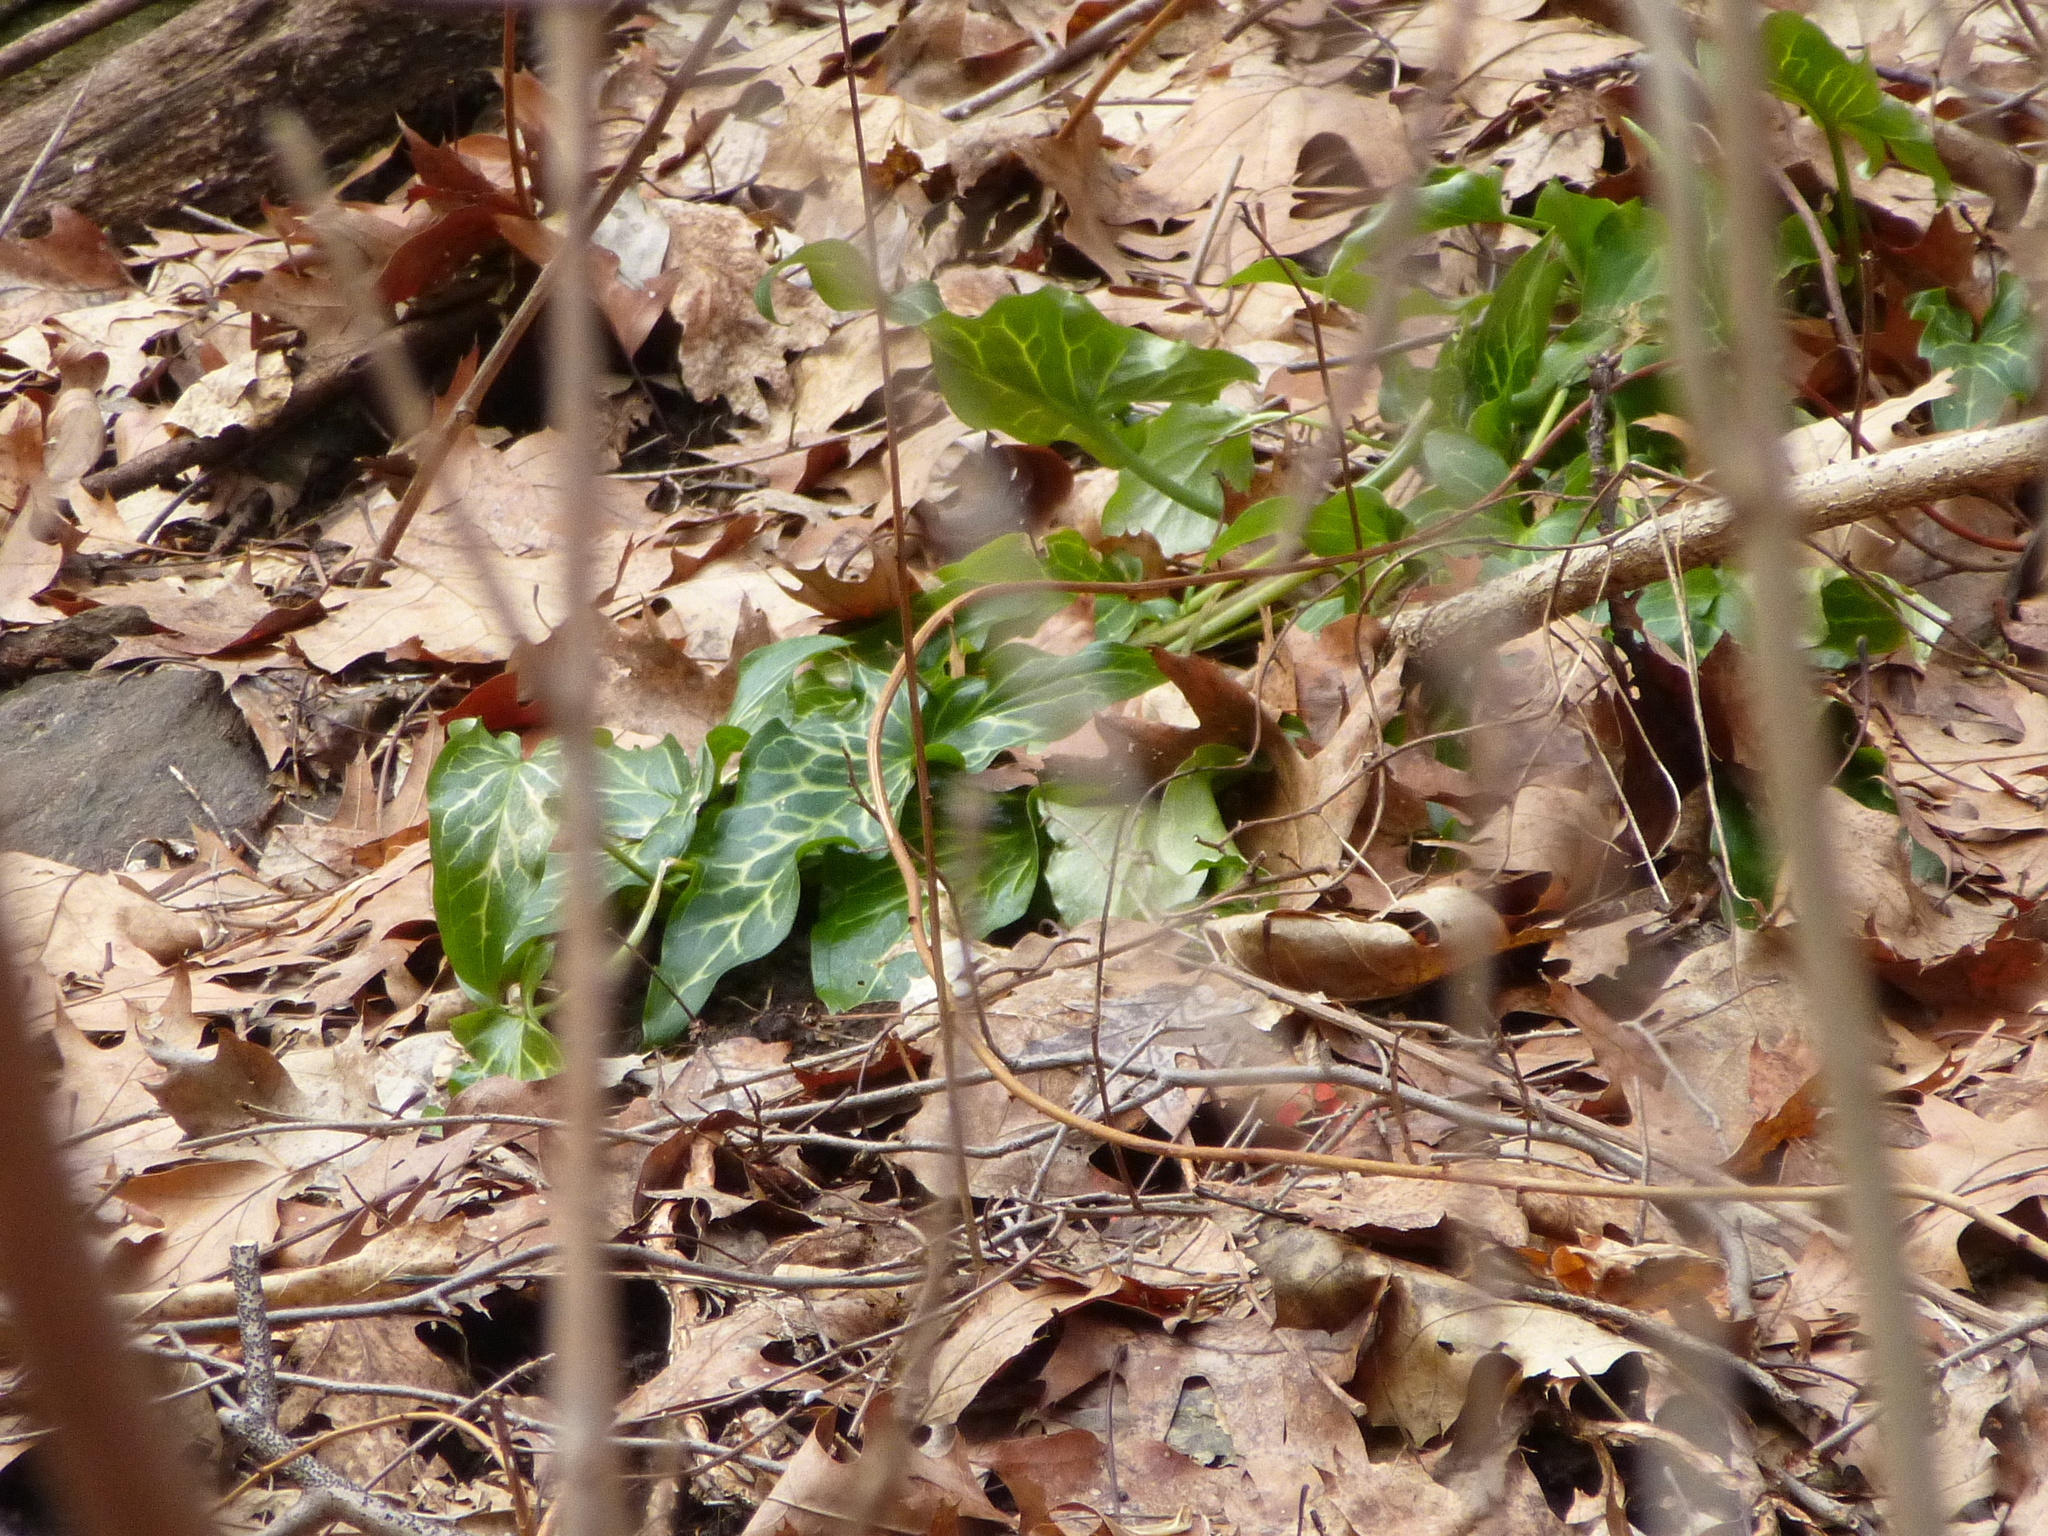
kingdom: Plantae
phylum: Tracheophyta
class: Liliopsida
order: Alismatales
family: Araceae
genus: Arum
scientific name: Arum italicum
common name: Italian lords-and-ladies
